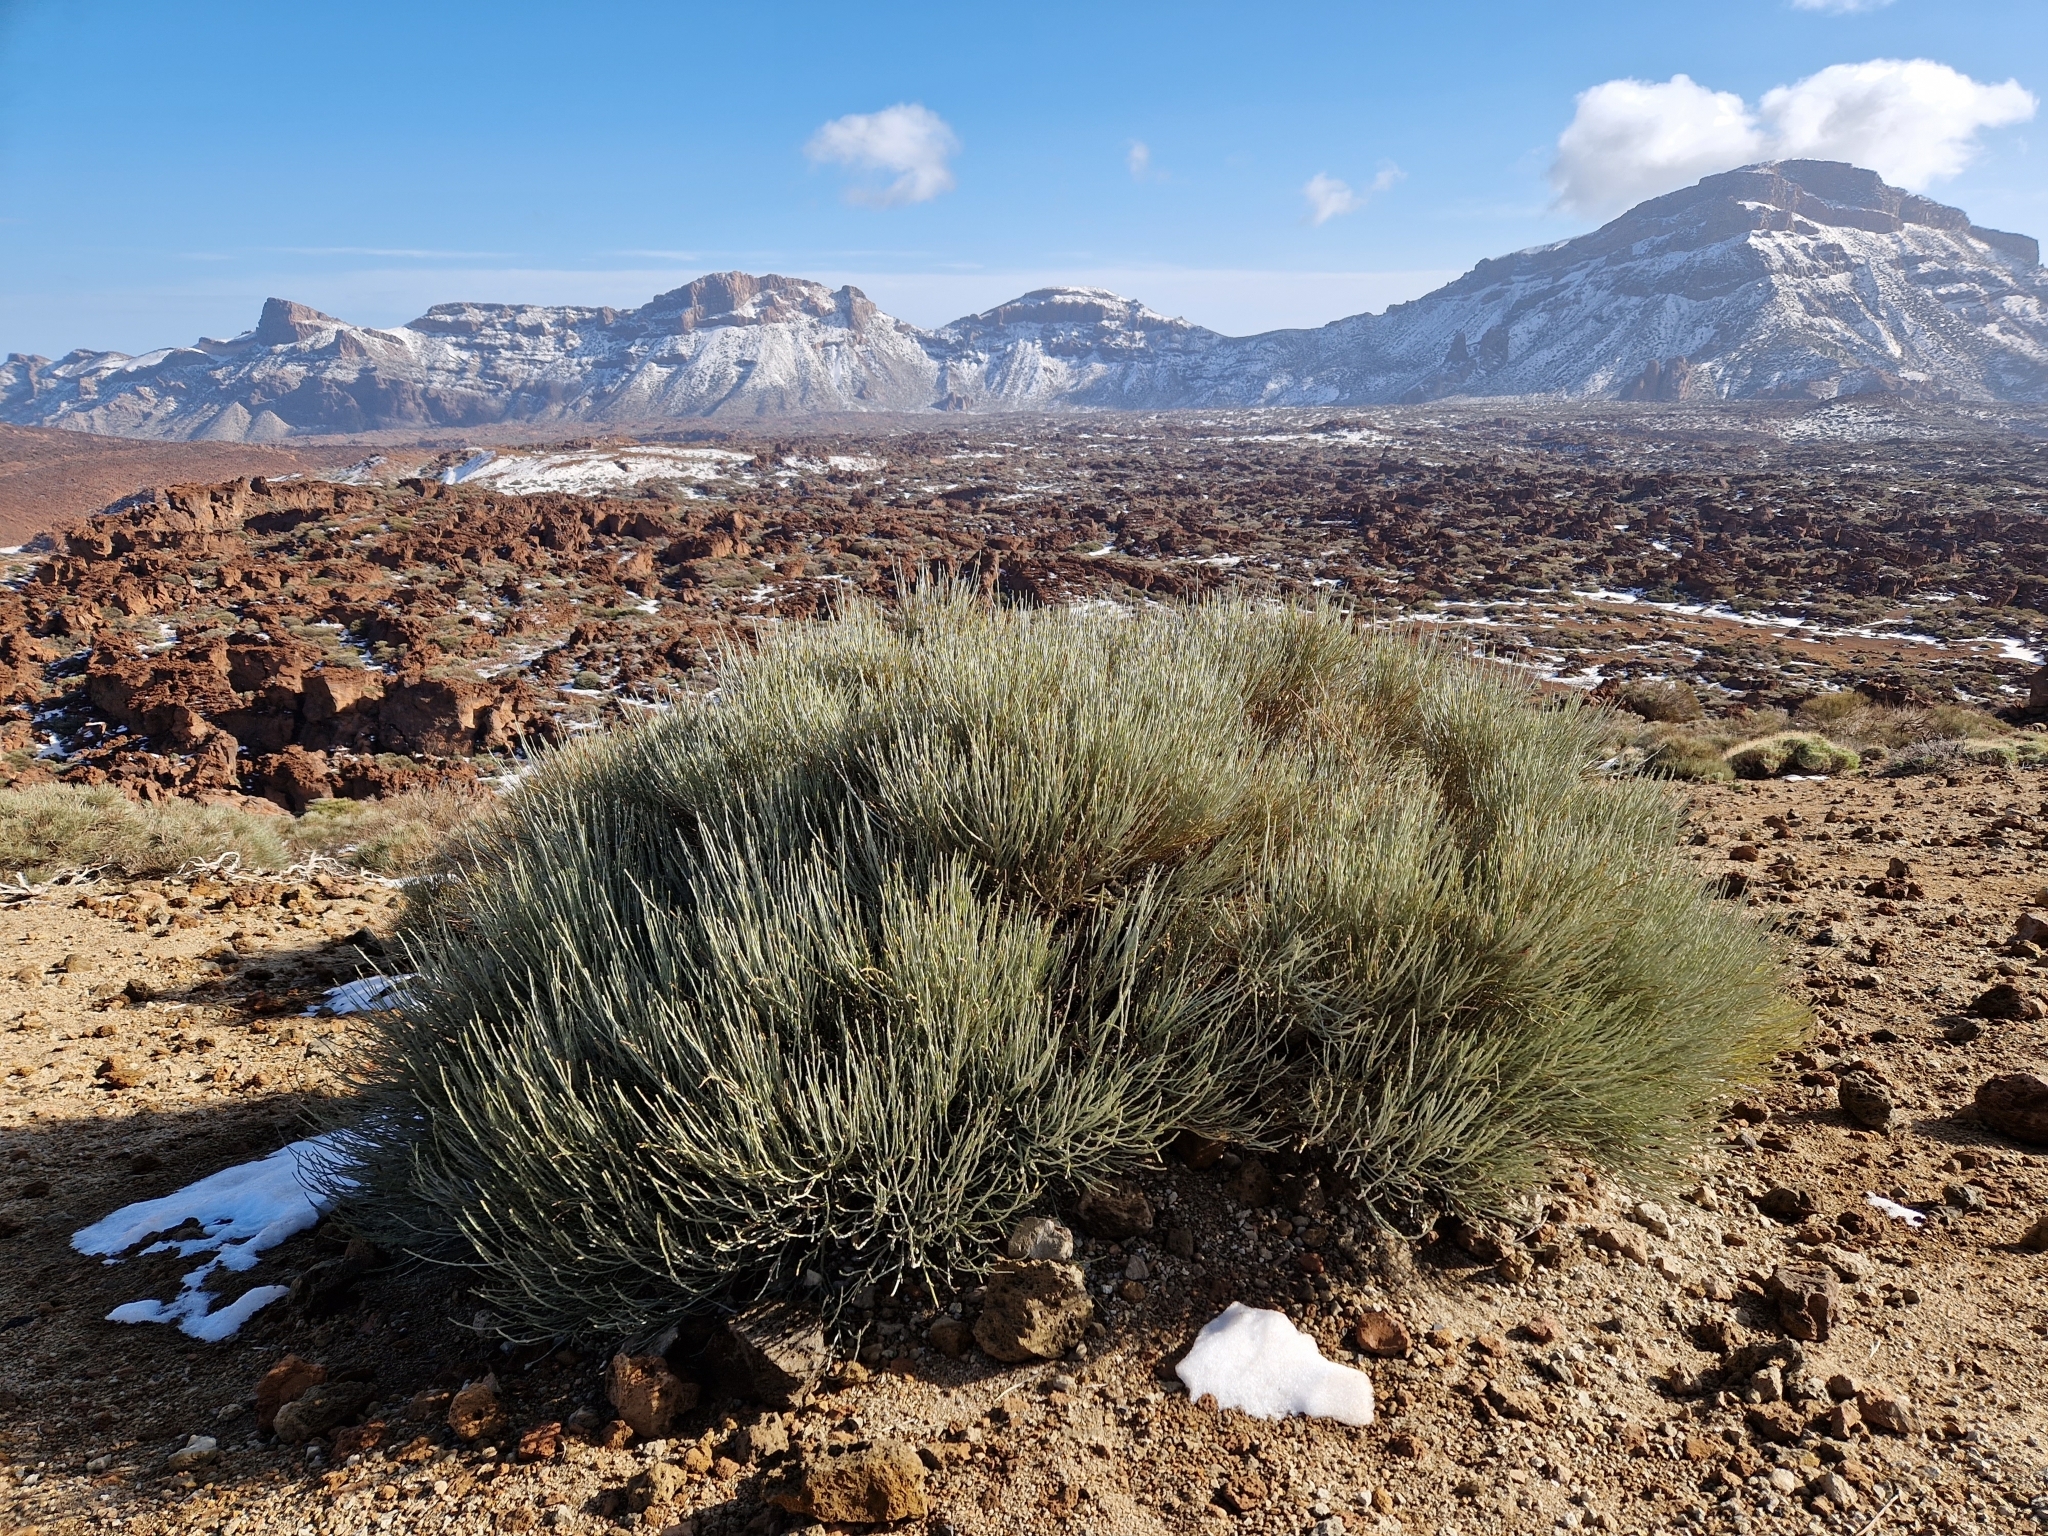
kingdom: Plantae
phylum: Tracheophyta
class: Magnoliopsida
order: Fabales
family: Fabaceae
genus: Cytisus
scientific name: Cytisus supranubius
